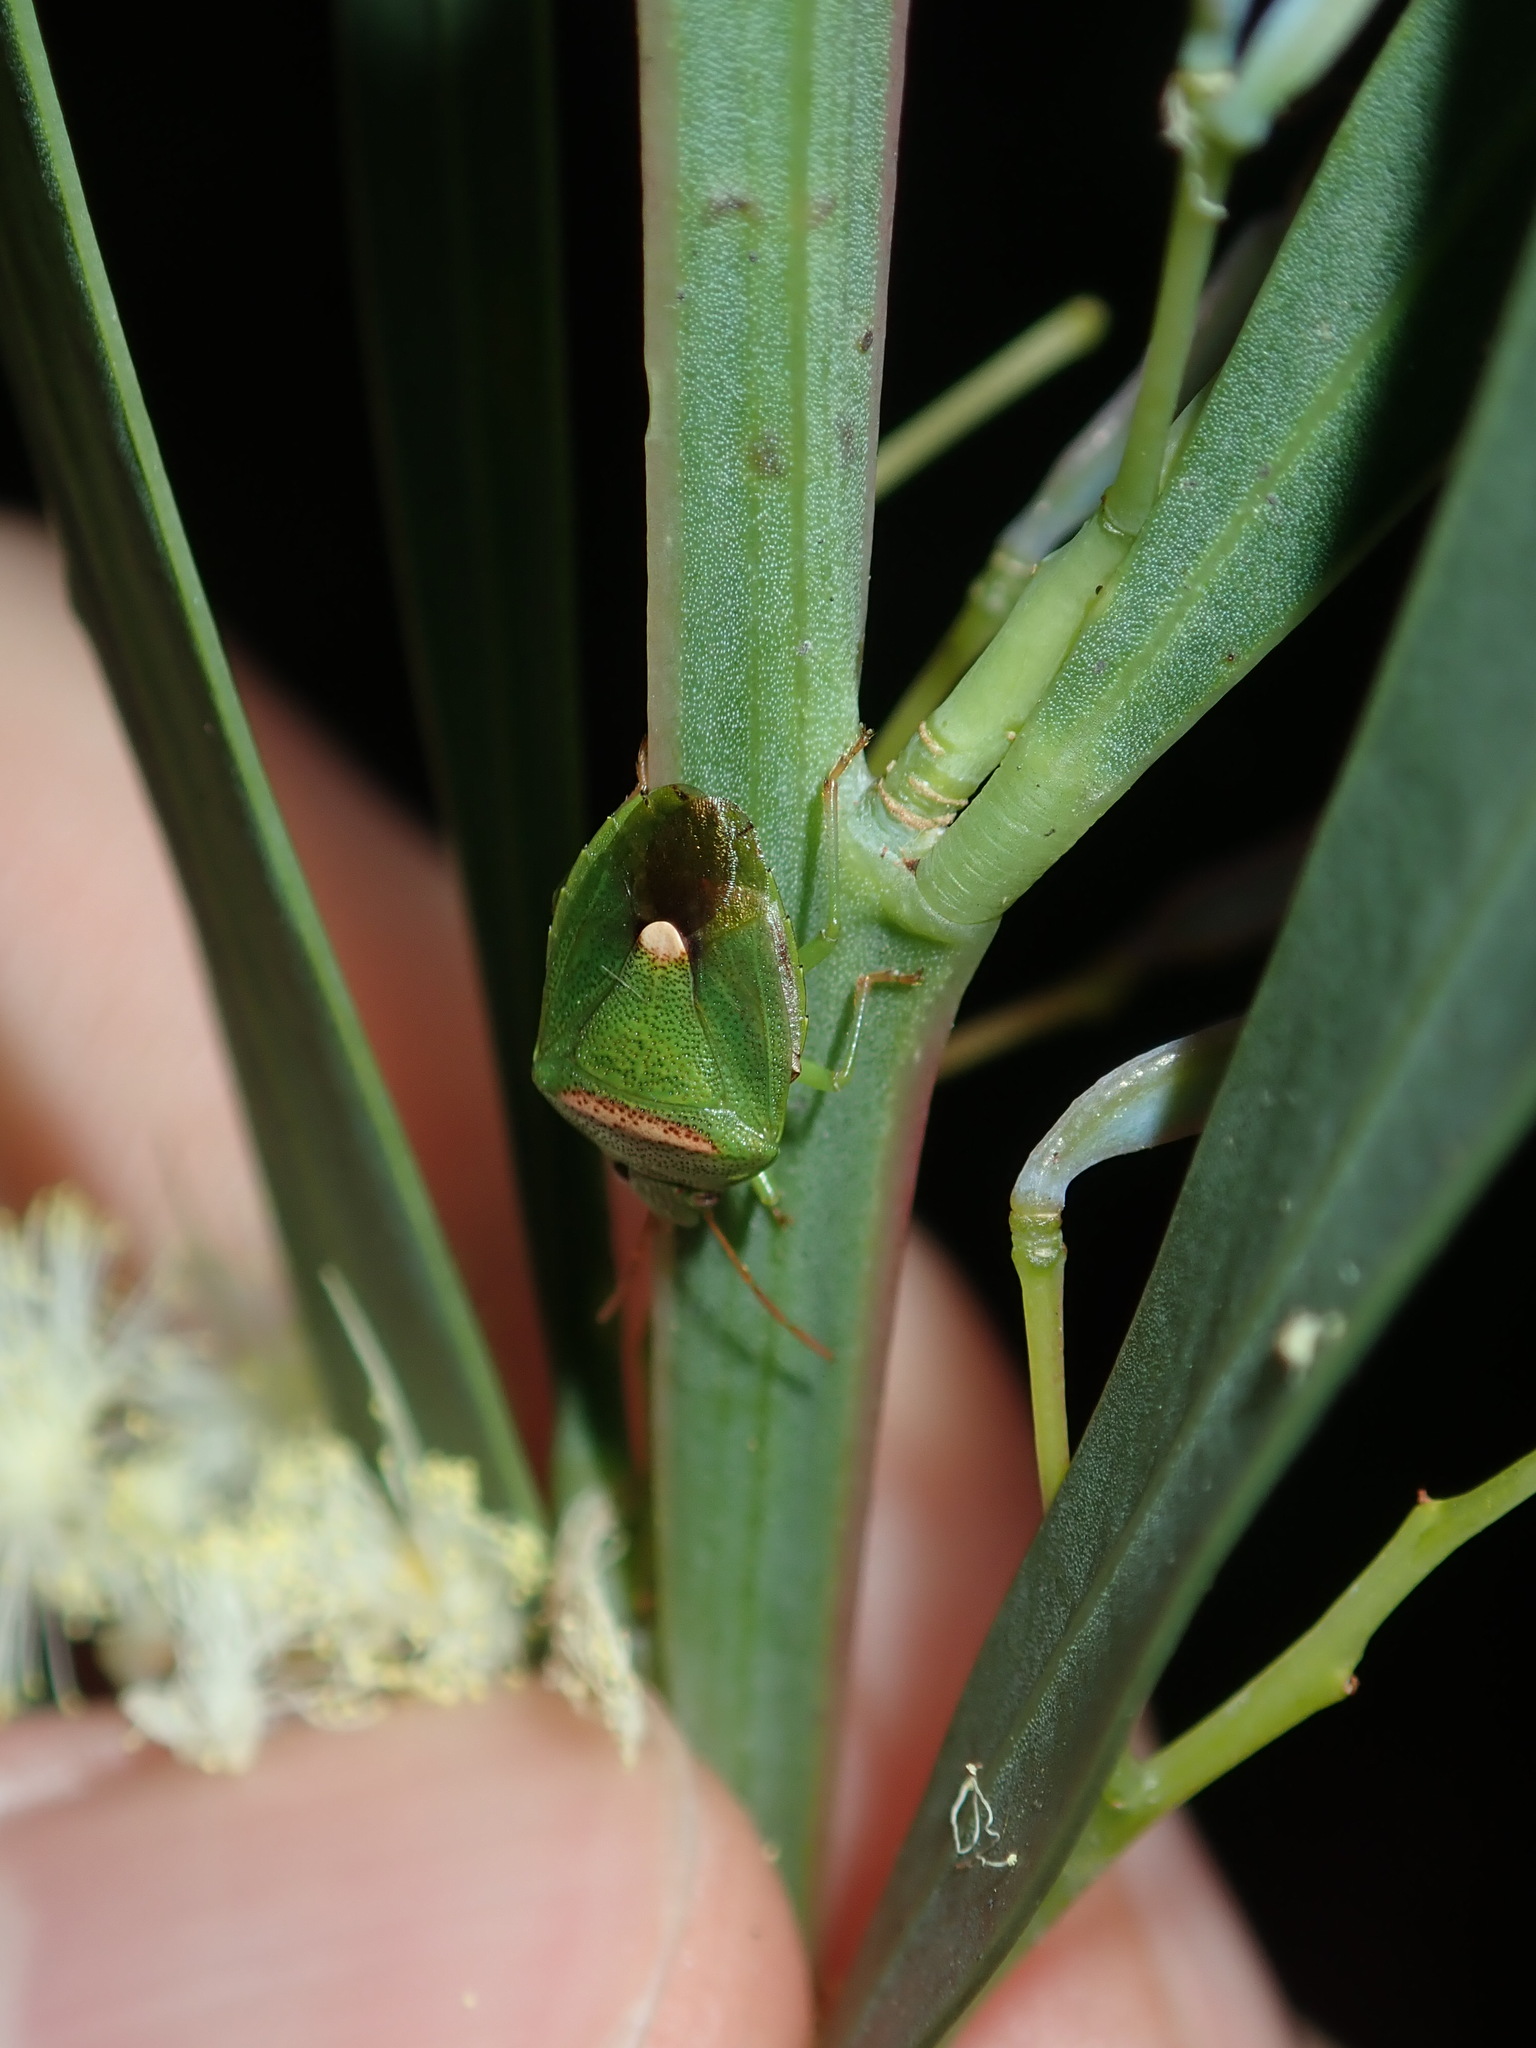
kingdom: Animalia
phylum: Arthropoda
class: Insecta
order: Hemiptera
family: Pentatomidae
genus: Ocirrhoe
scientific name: Ocirrhoe
